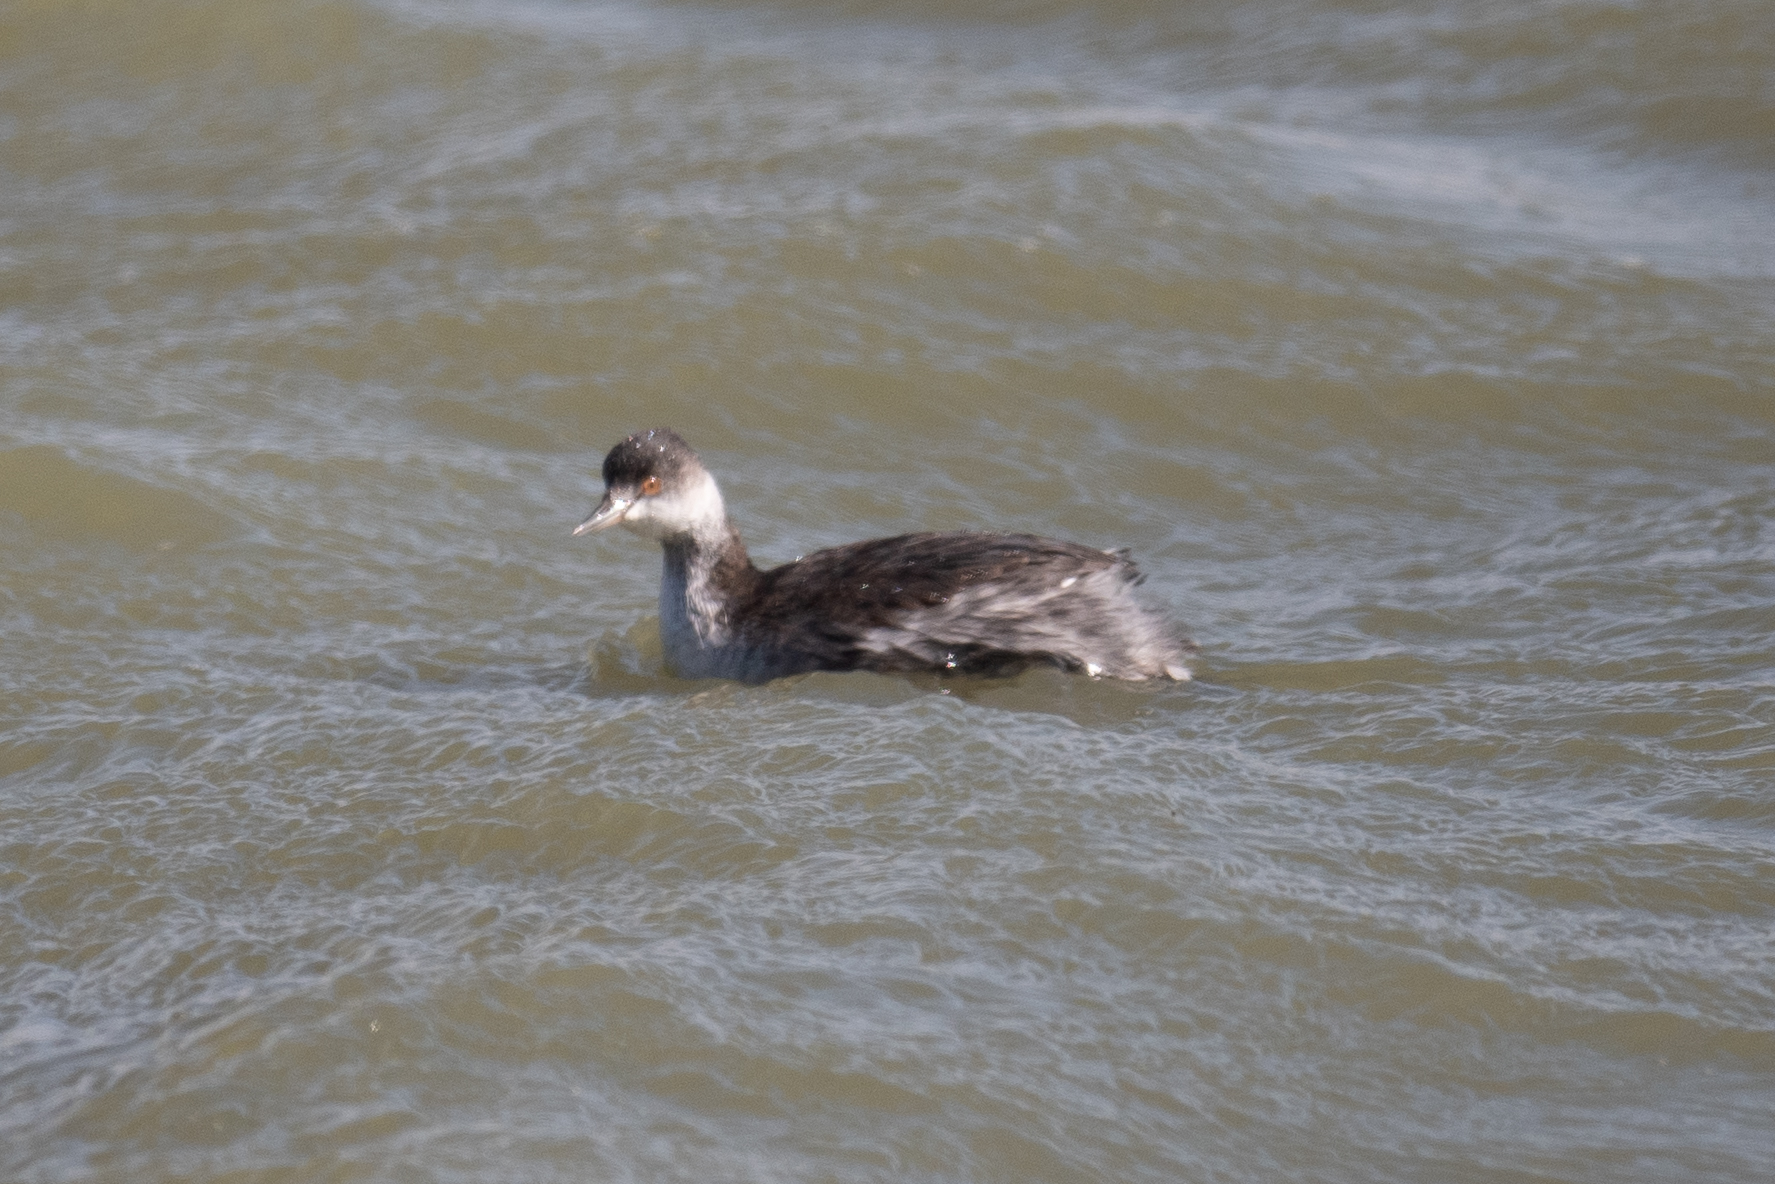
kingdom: Animalia
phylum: Chordata
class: Aves
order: Podicipediformes
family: Podicipedidae
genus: Podiceps
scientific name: Podiceps nigricollis
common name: Black-necked grebe
